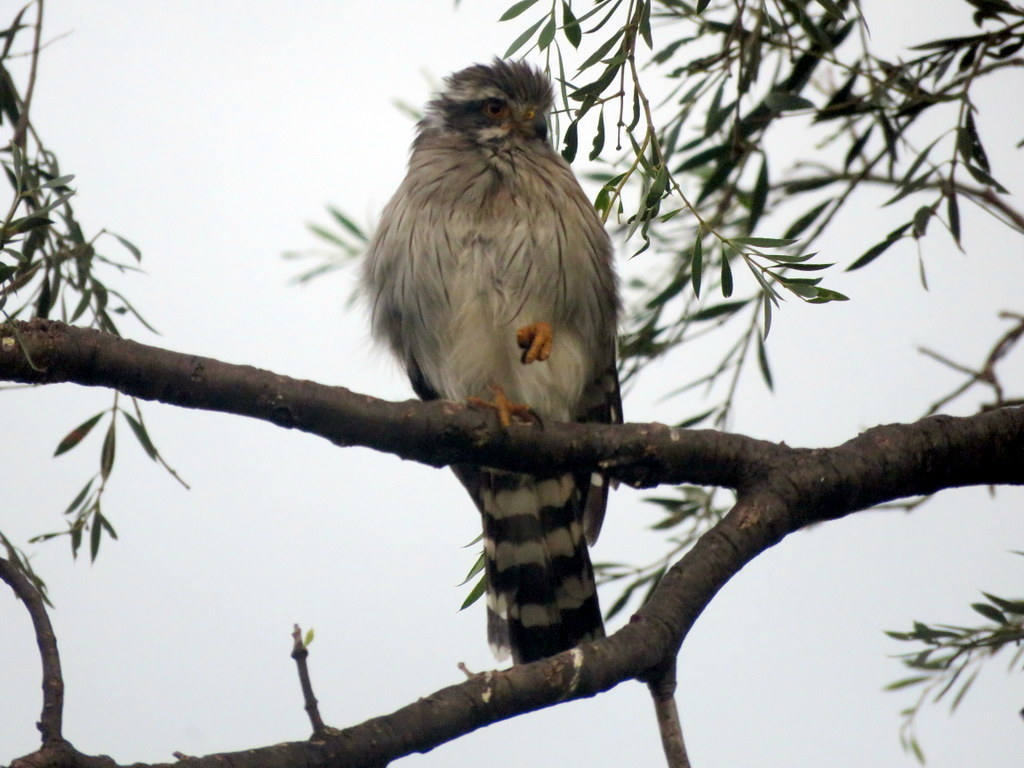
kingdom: Animalia
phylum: Chordata
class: Aves
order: Falconiformes
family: Falconidae
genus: Spiziapteryx
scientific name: Spiziapteryx circumcincta
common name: Spot-winged falconet
